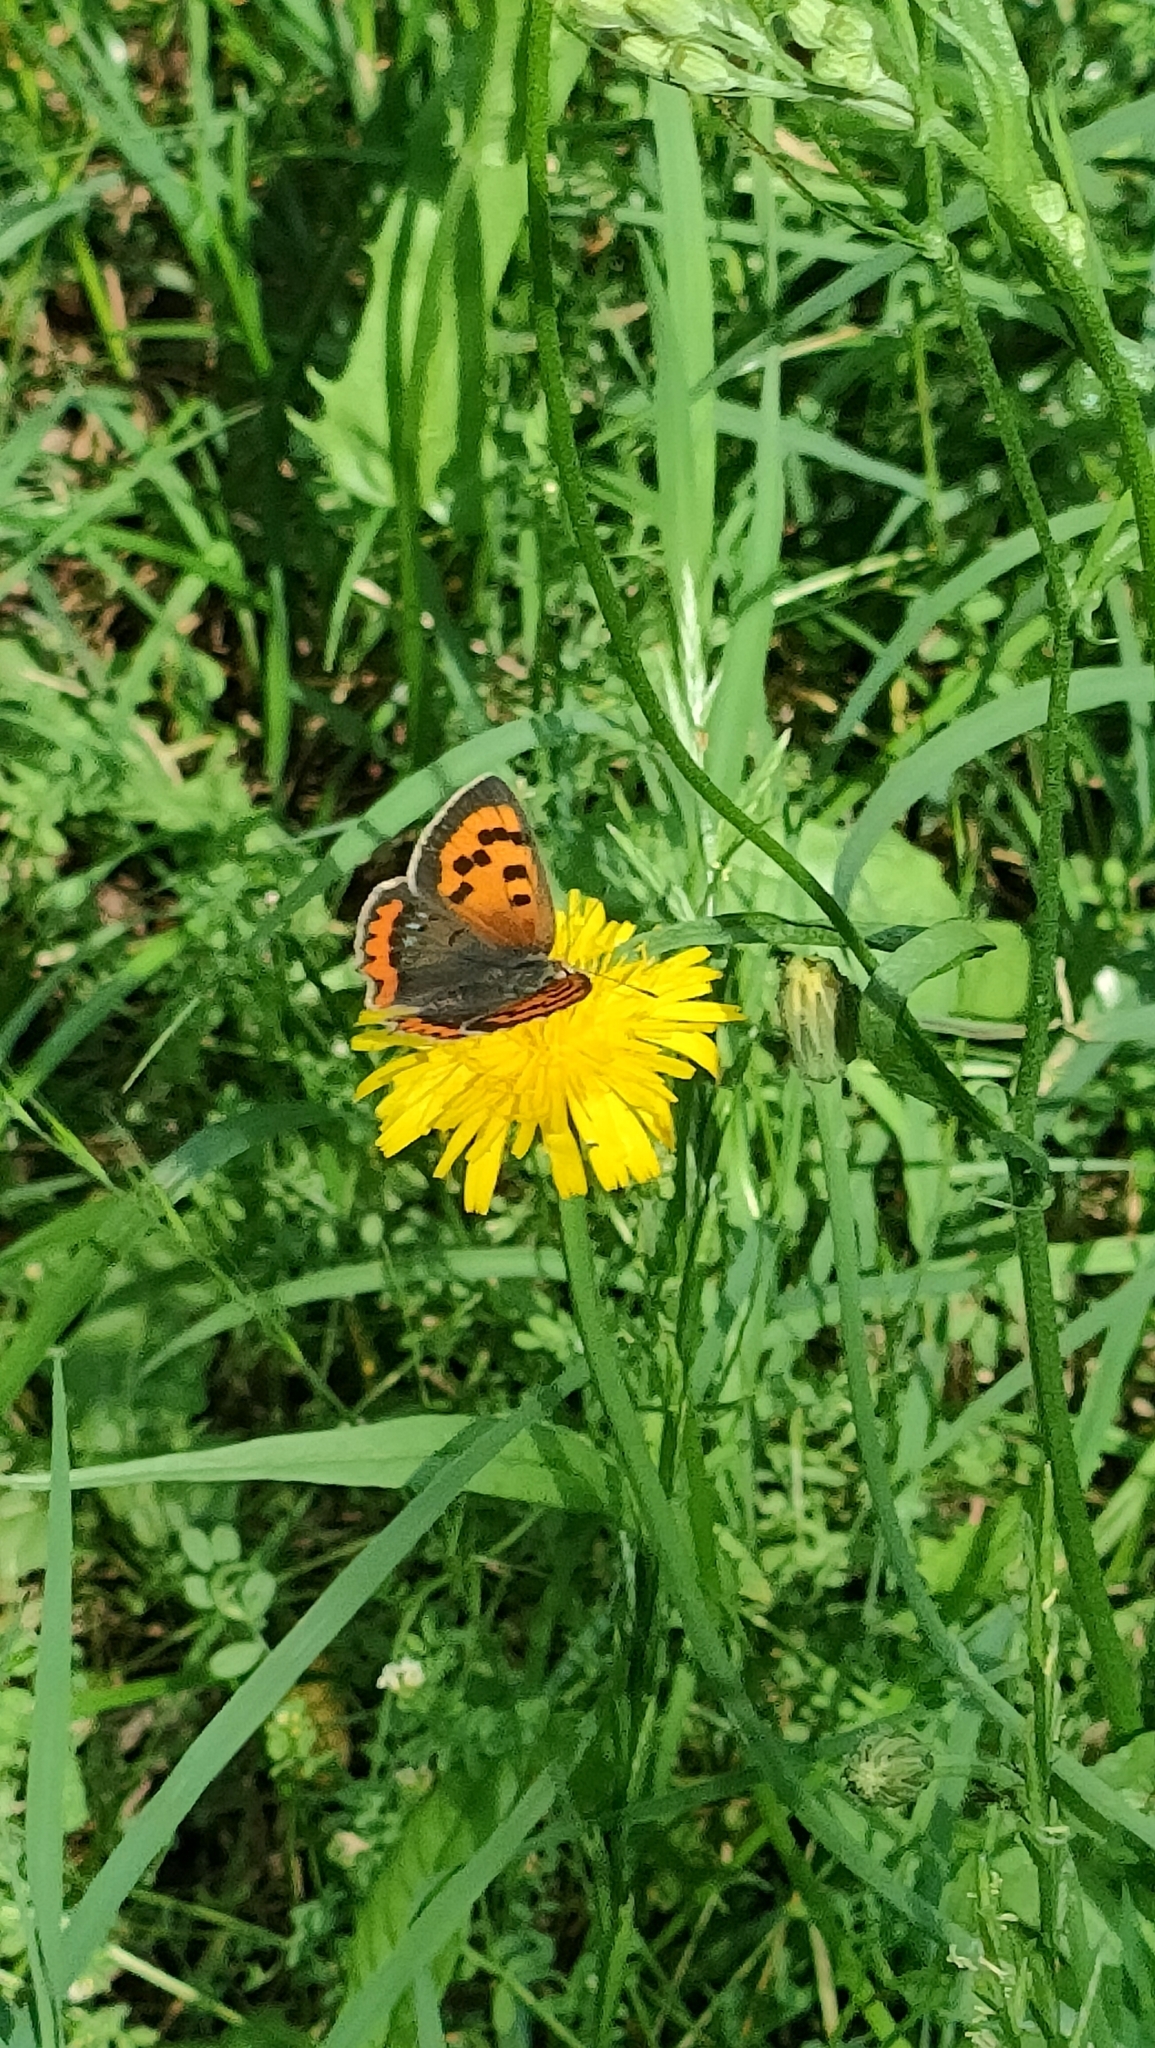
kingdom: Animalia
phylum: Arthropoda
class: Insecta
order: Lepidoptera
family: Lycaenidae
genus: Lycaena
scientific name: Lycaena phlaeas
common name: Small copper
